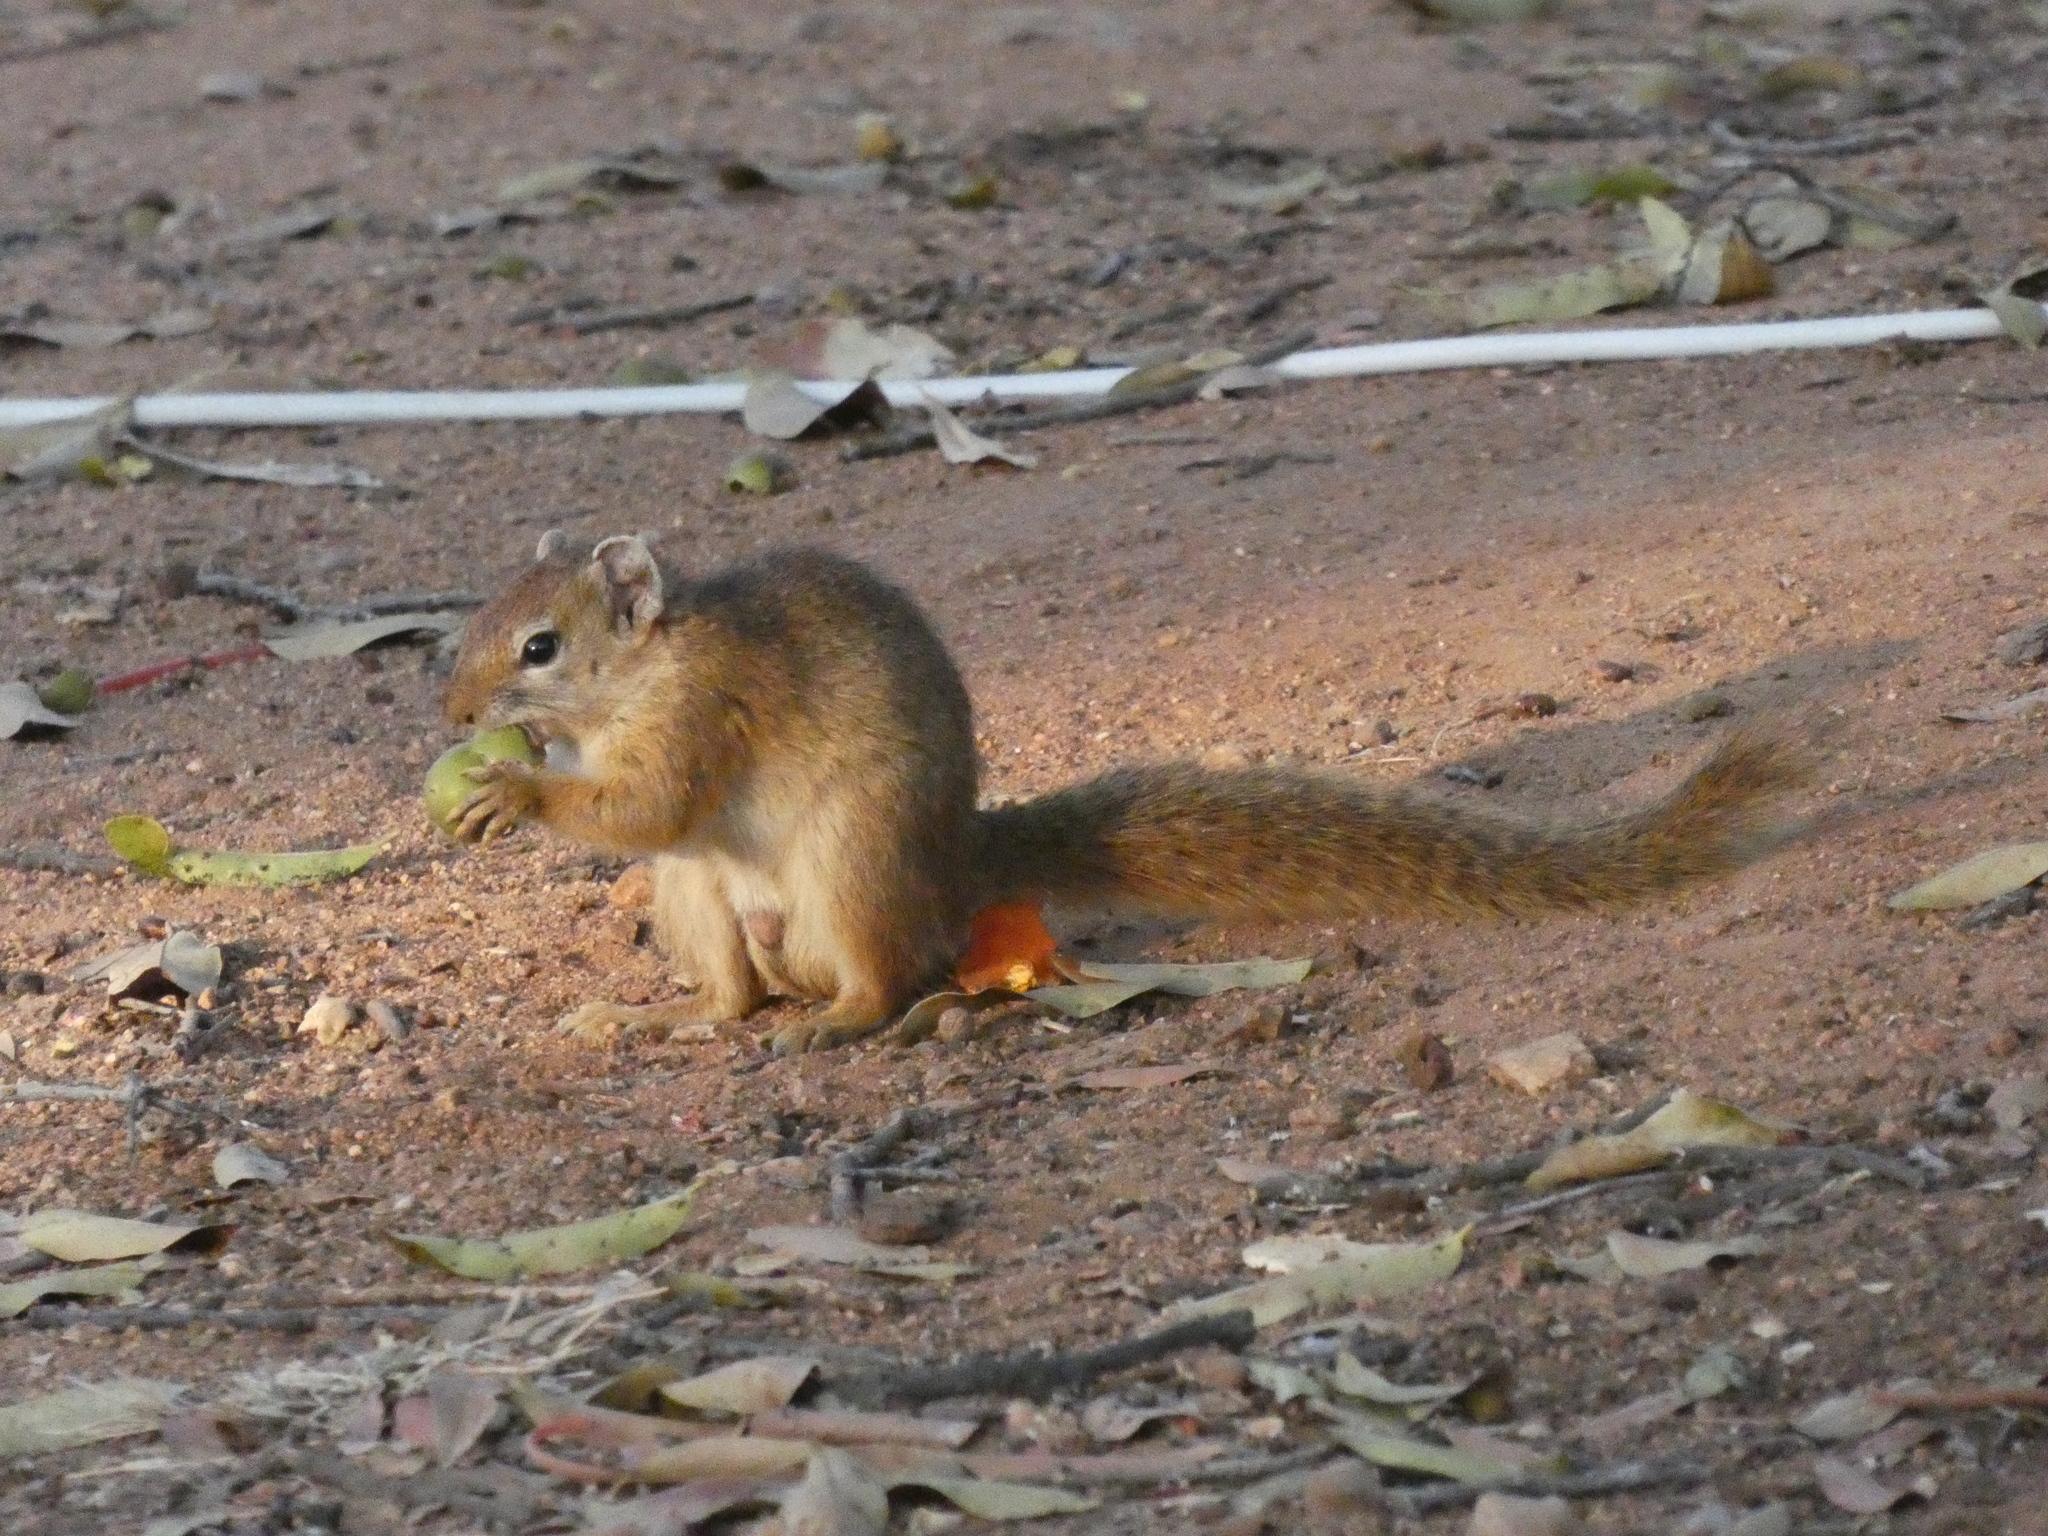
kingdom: Animalia
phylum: Chordata
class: Mammalia
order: Rodentia
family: Sciuridae
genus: Paraxerus
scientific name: Paraxerus cepapi
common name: Smith's bush squirrel
